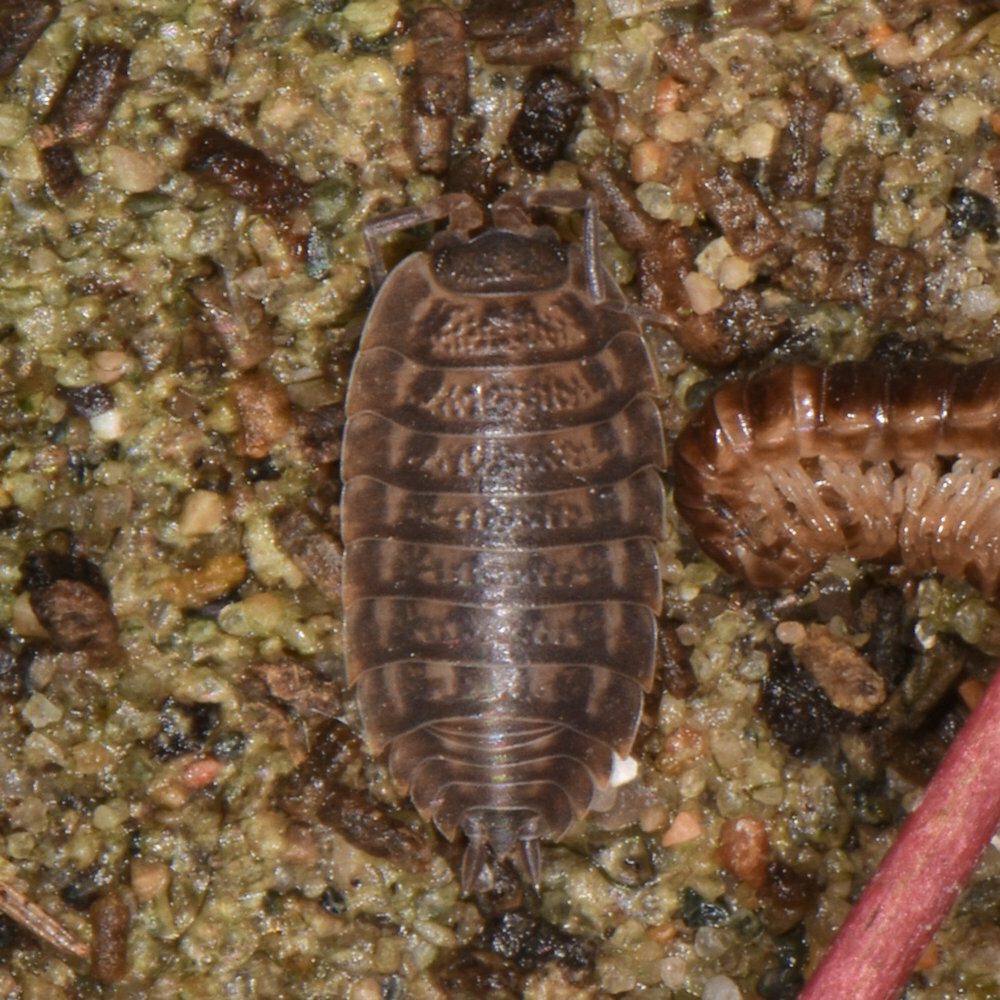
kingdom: Animalia
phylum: Arthropoda
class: Malacostraca
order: Isopoda
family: Trachelipodidae
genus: Trachelipus
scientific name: Trachelipus rathkii
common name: Isopod
